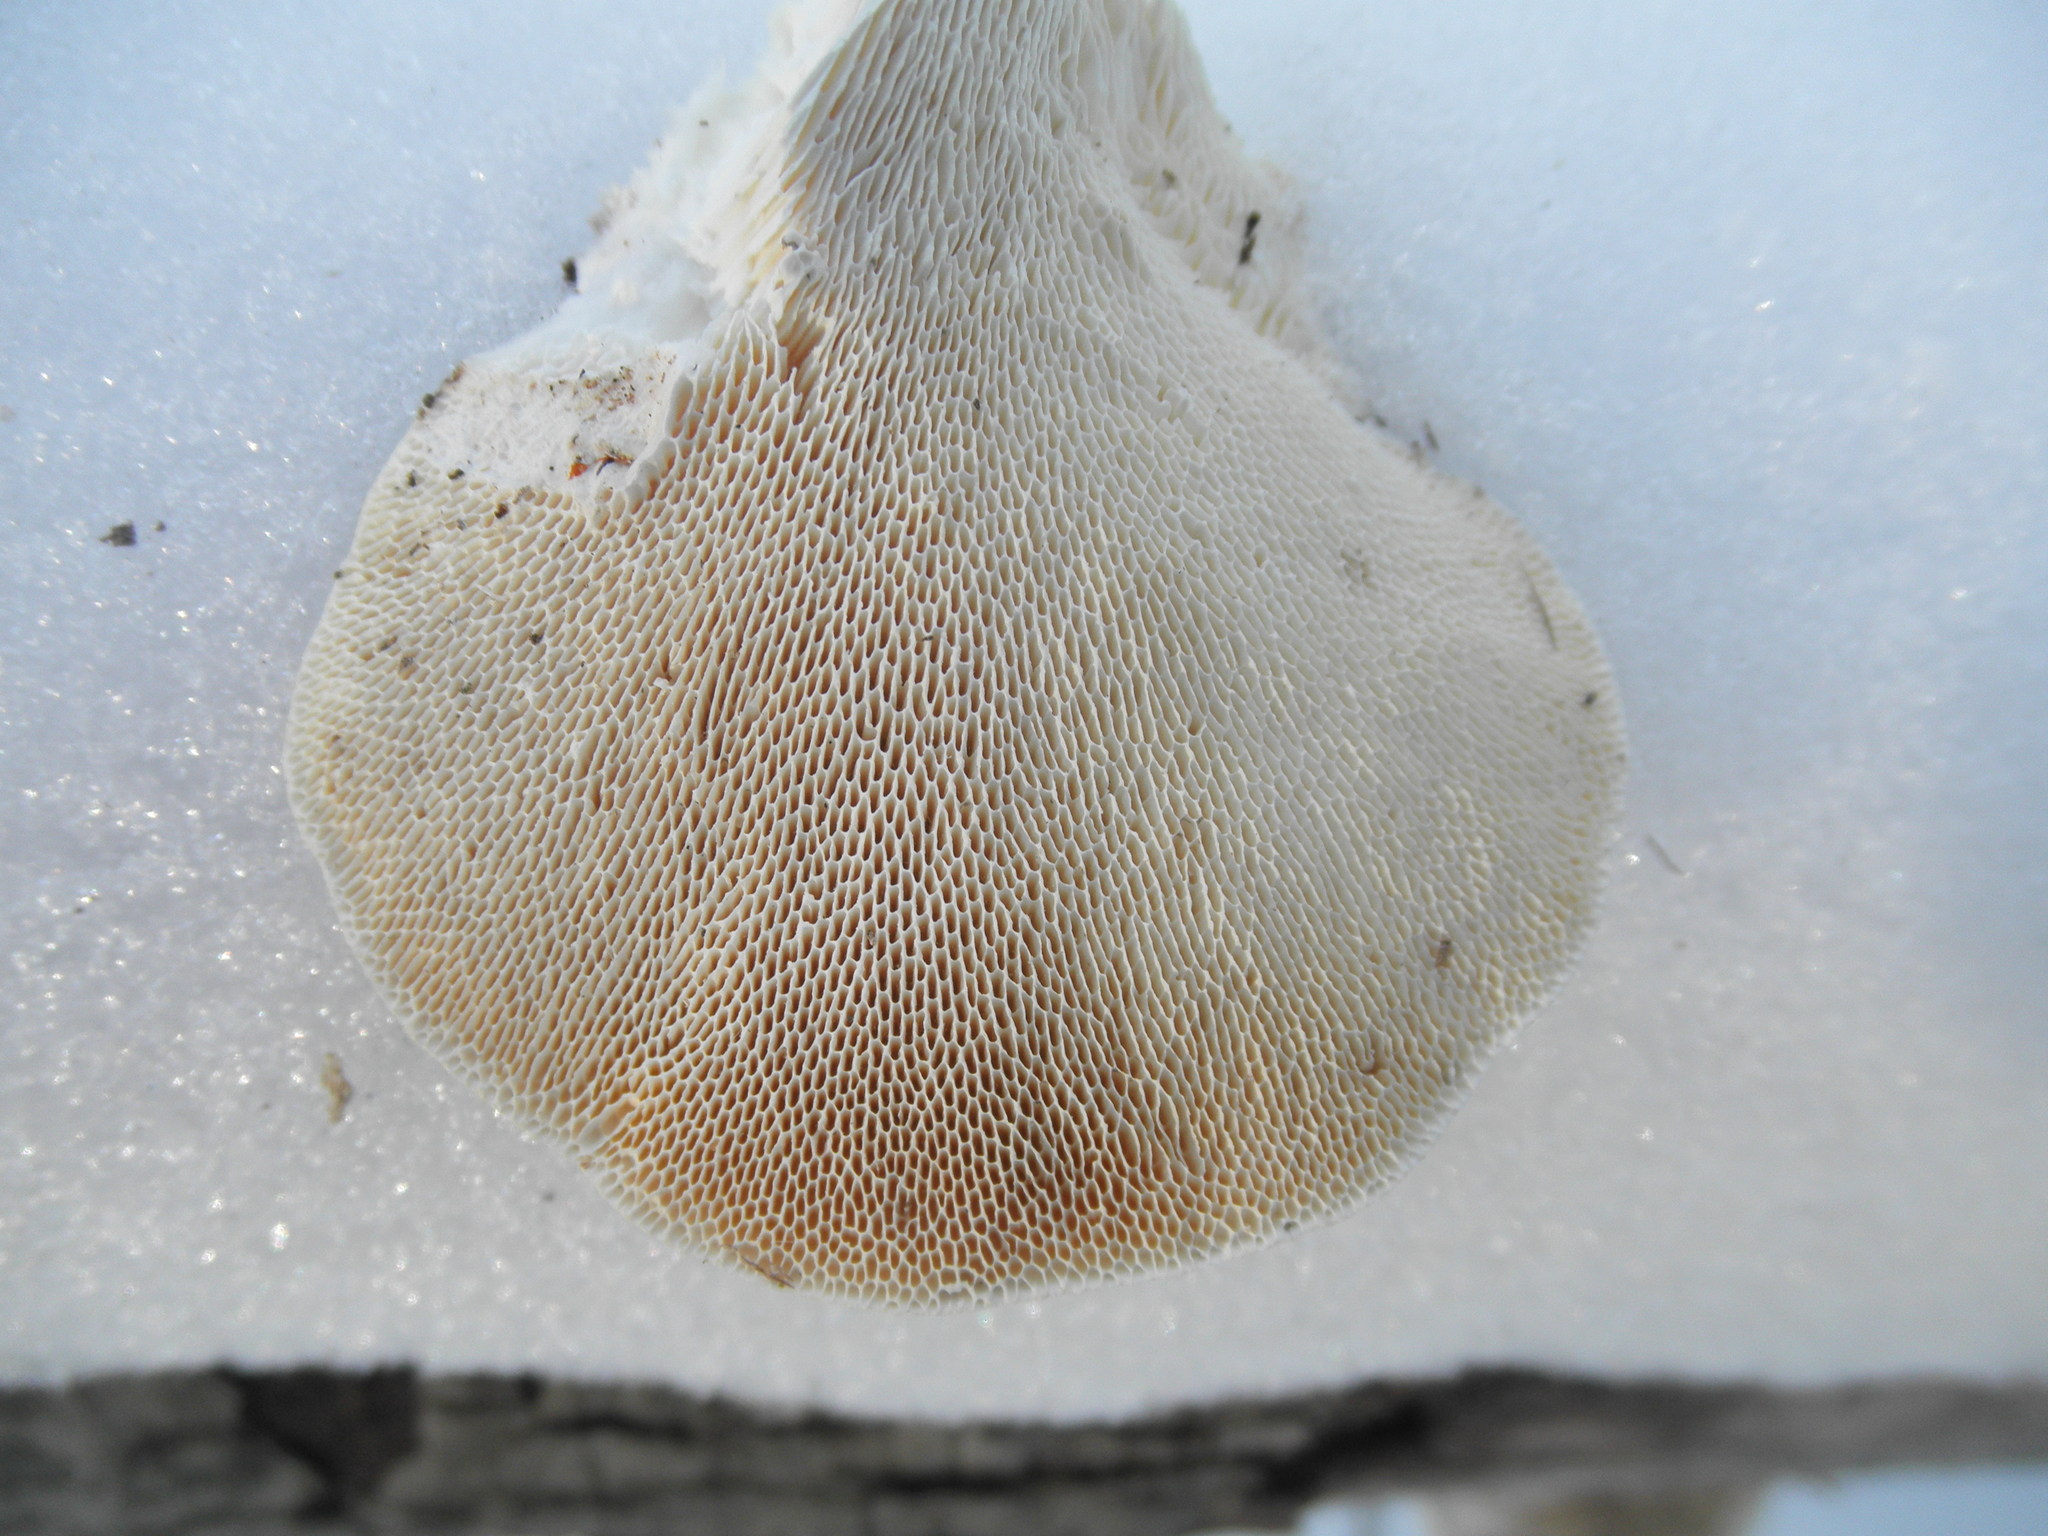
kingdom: Fungi
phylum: Basidiomycota
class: Agaricomycetes
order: Polyporales
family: Polyporaceae
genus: Trametes
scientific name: Trametes gibbosa
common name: Lumpy bracket
